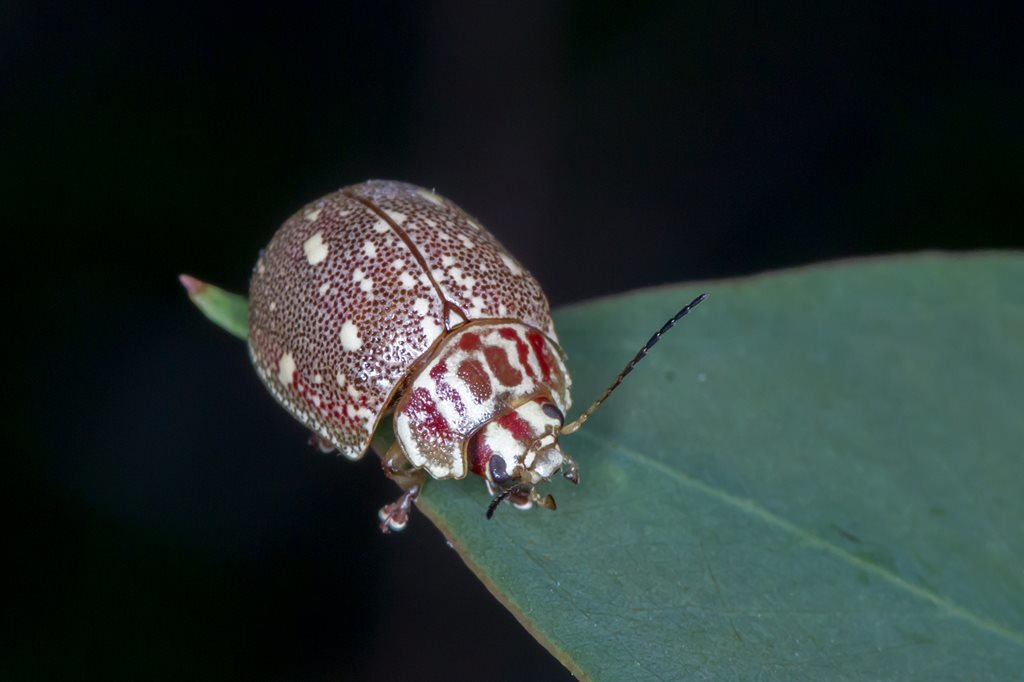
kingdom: Animalia
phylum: Arthropoda
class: Insecta
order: Coleoptera
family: Chrysomelidae
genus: Paropsis
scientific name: Paropsis
